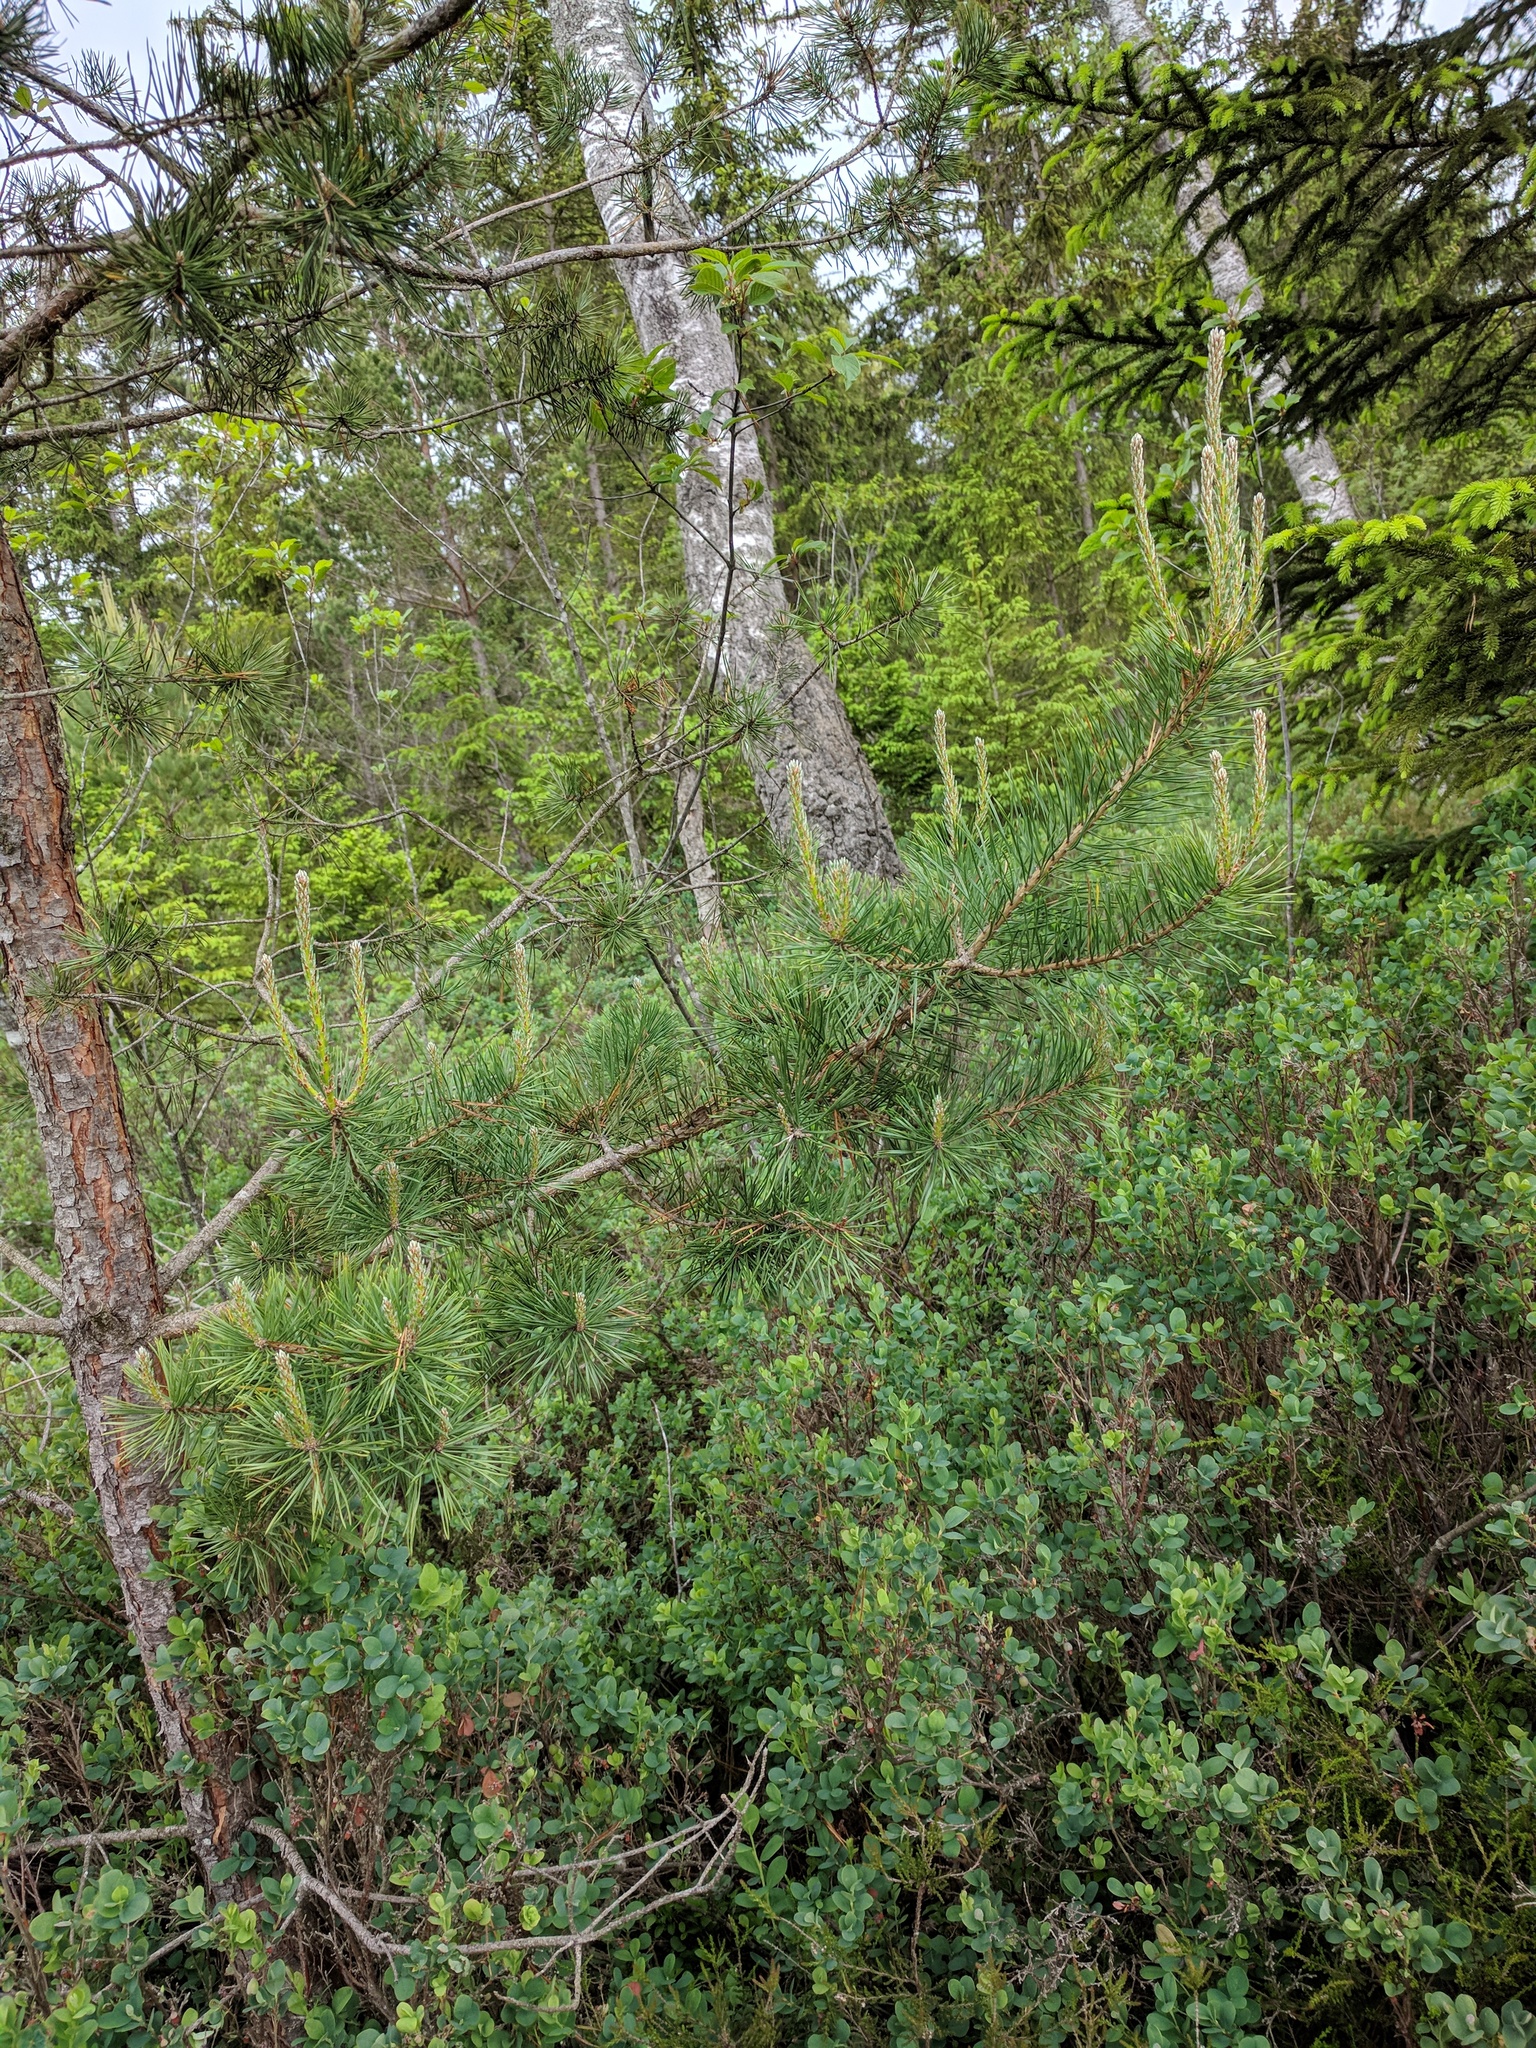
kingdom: Plantae
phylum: Tracheophyta
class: Pinopsida
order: Pinales
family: Pinaceae
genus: Pinus
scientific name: Pinus sylvestris
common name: Scots pine
